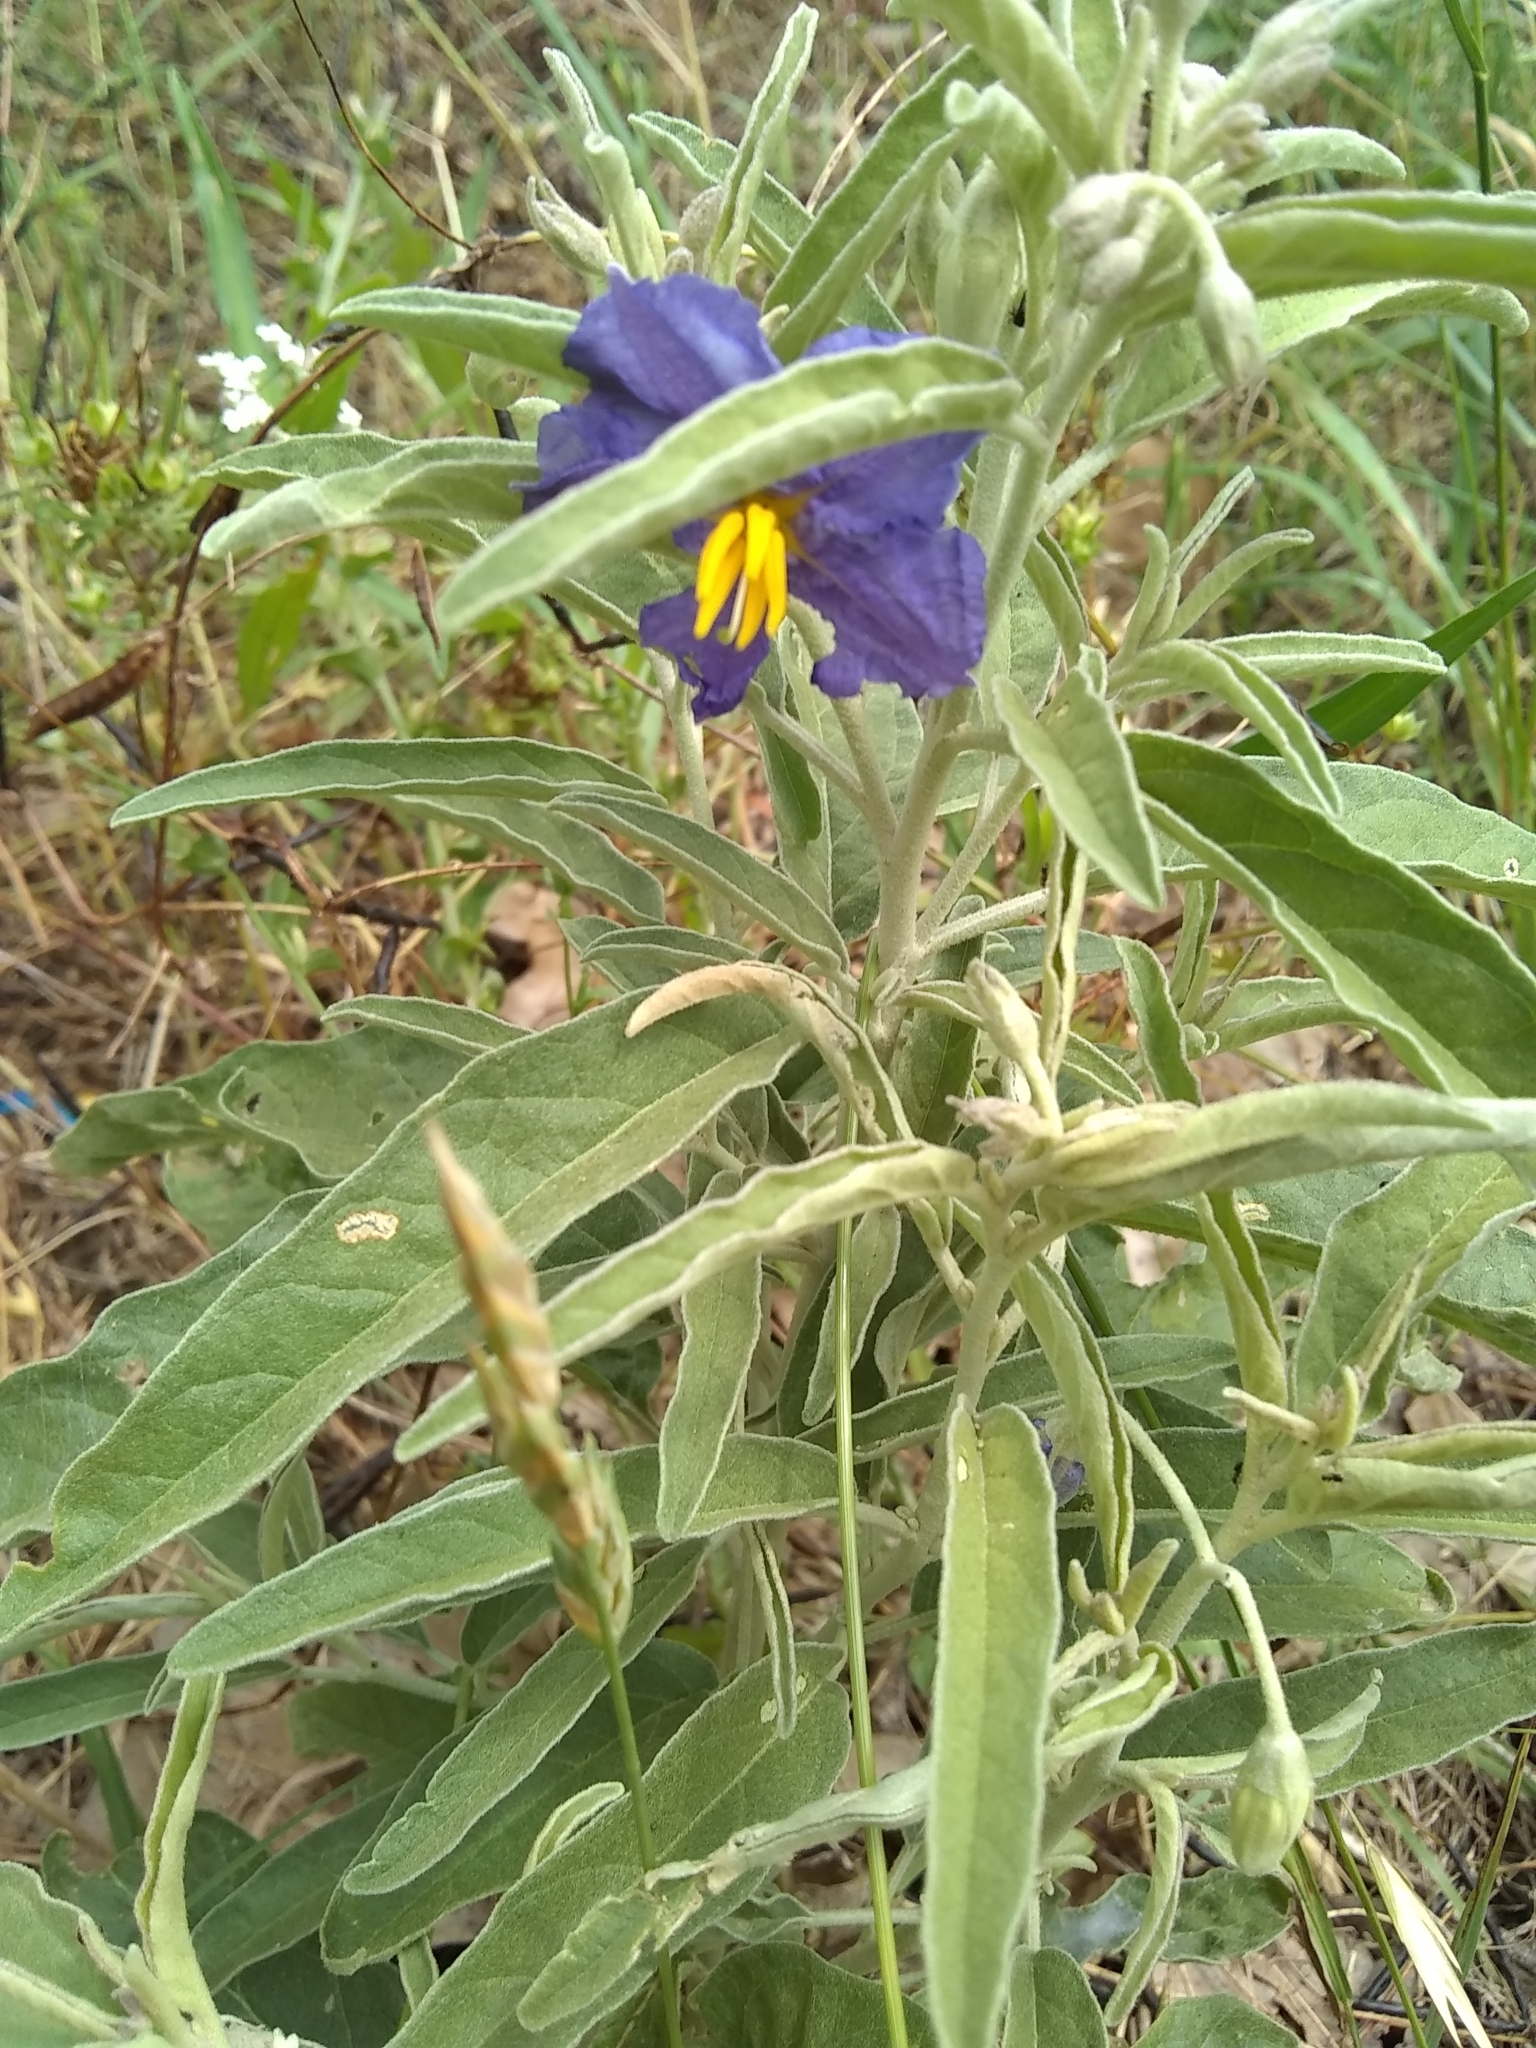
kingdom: Plantae
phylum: Tracheophyta
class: Magnoliopsida
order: Solanales
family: Solanaceae
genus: Solanum
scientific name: Solanum elaeagnifolium
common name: Silverleaf nightshade
